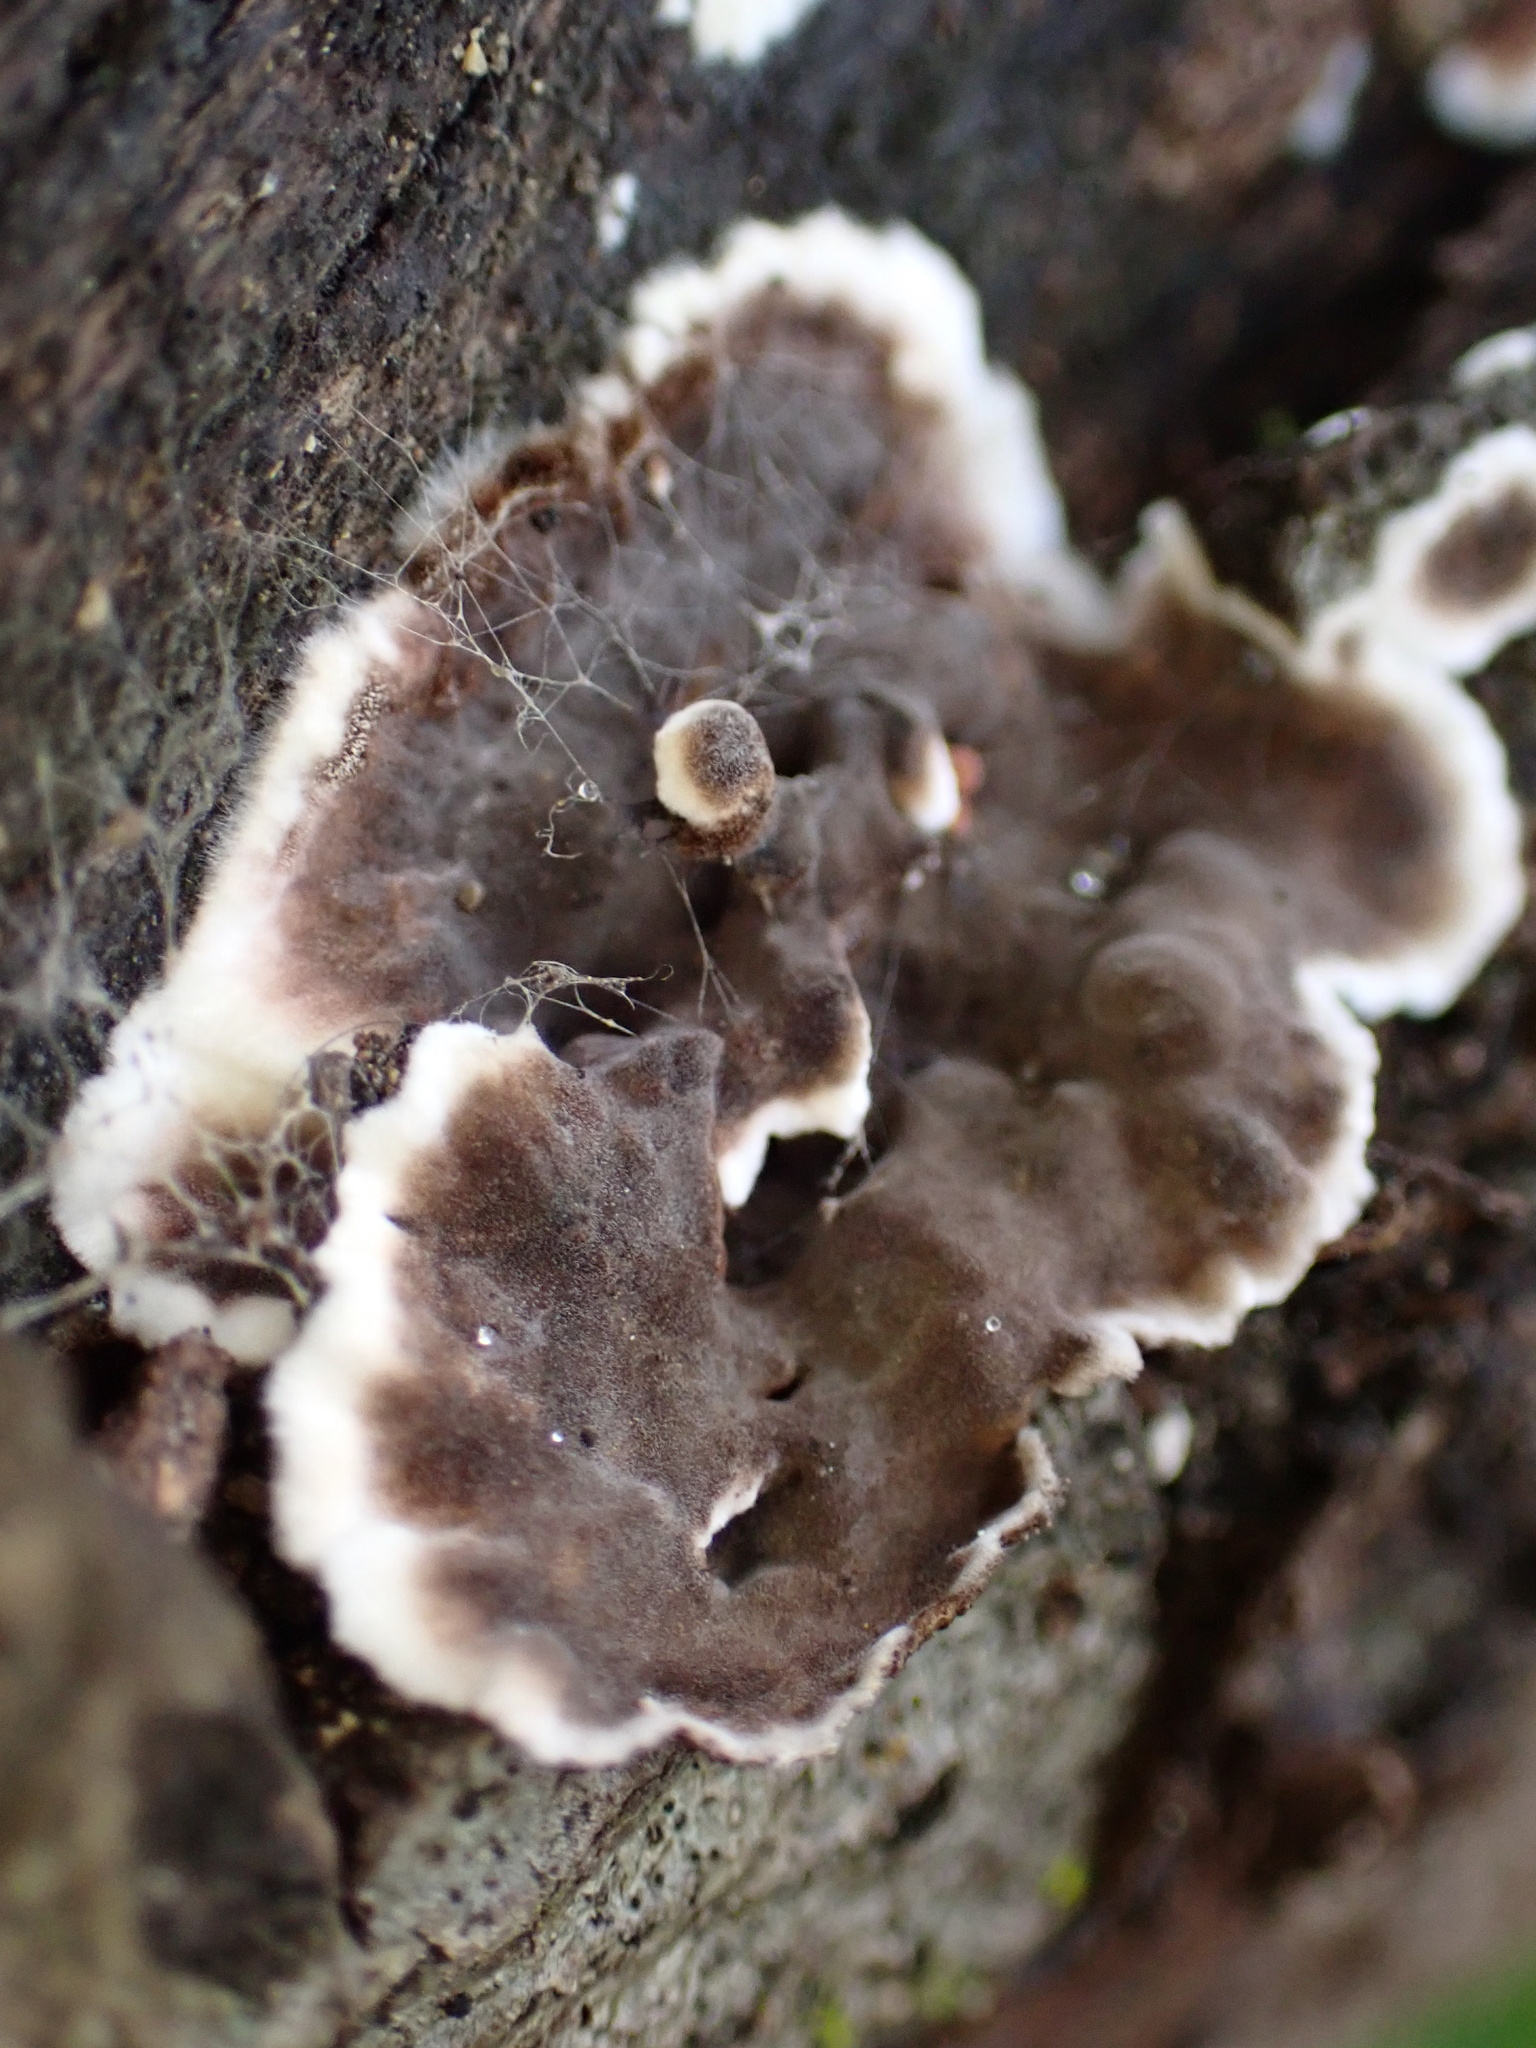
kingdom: Fungi
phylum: Basidiomycota
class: Agaricomycetes
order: Russulales
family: Peniophoraceae
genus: Peniophora
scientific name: Peniophora albobadia
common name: Giraffe spots
